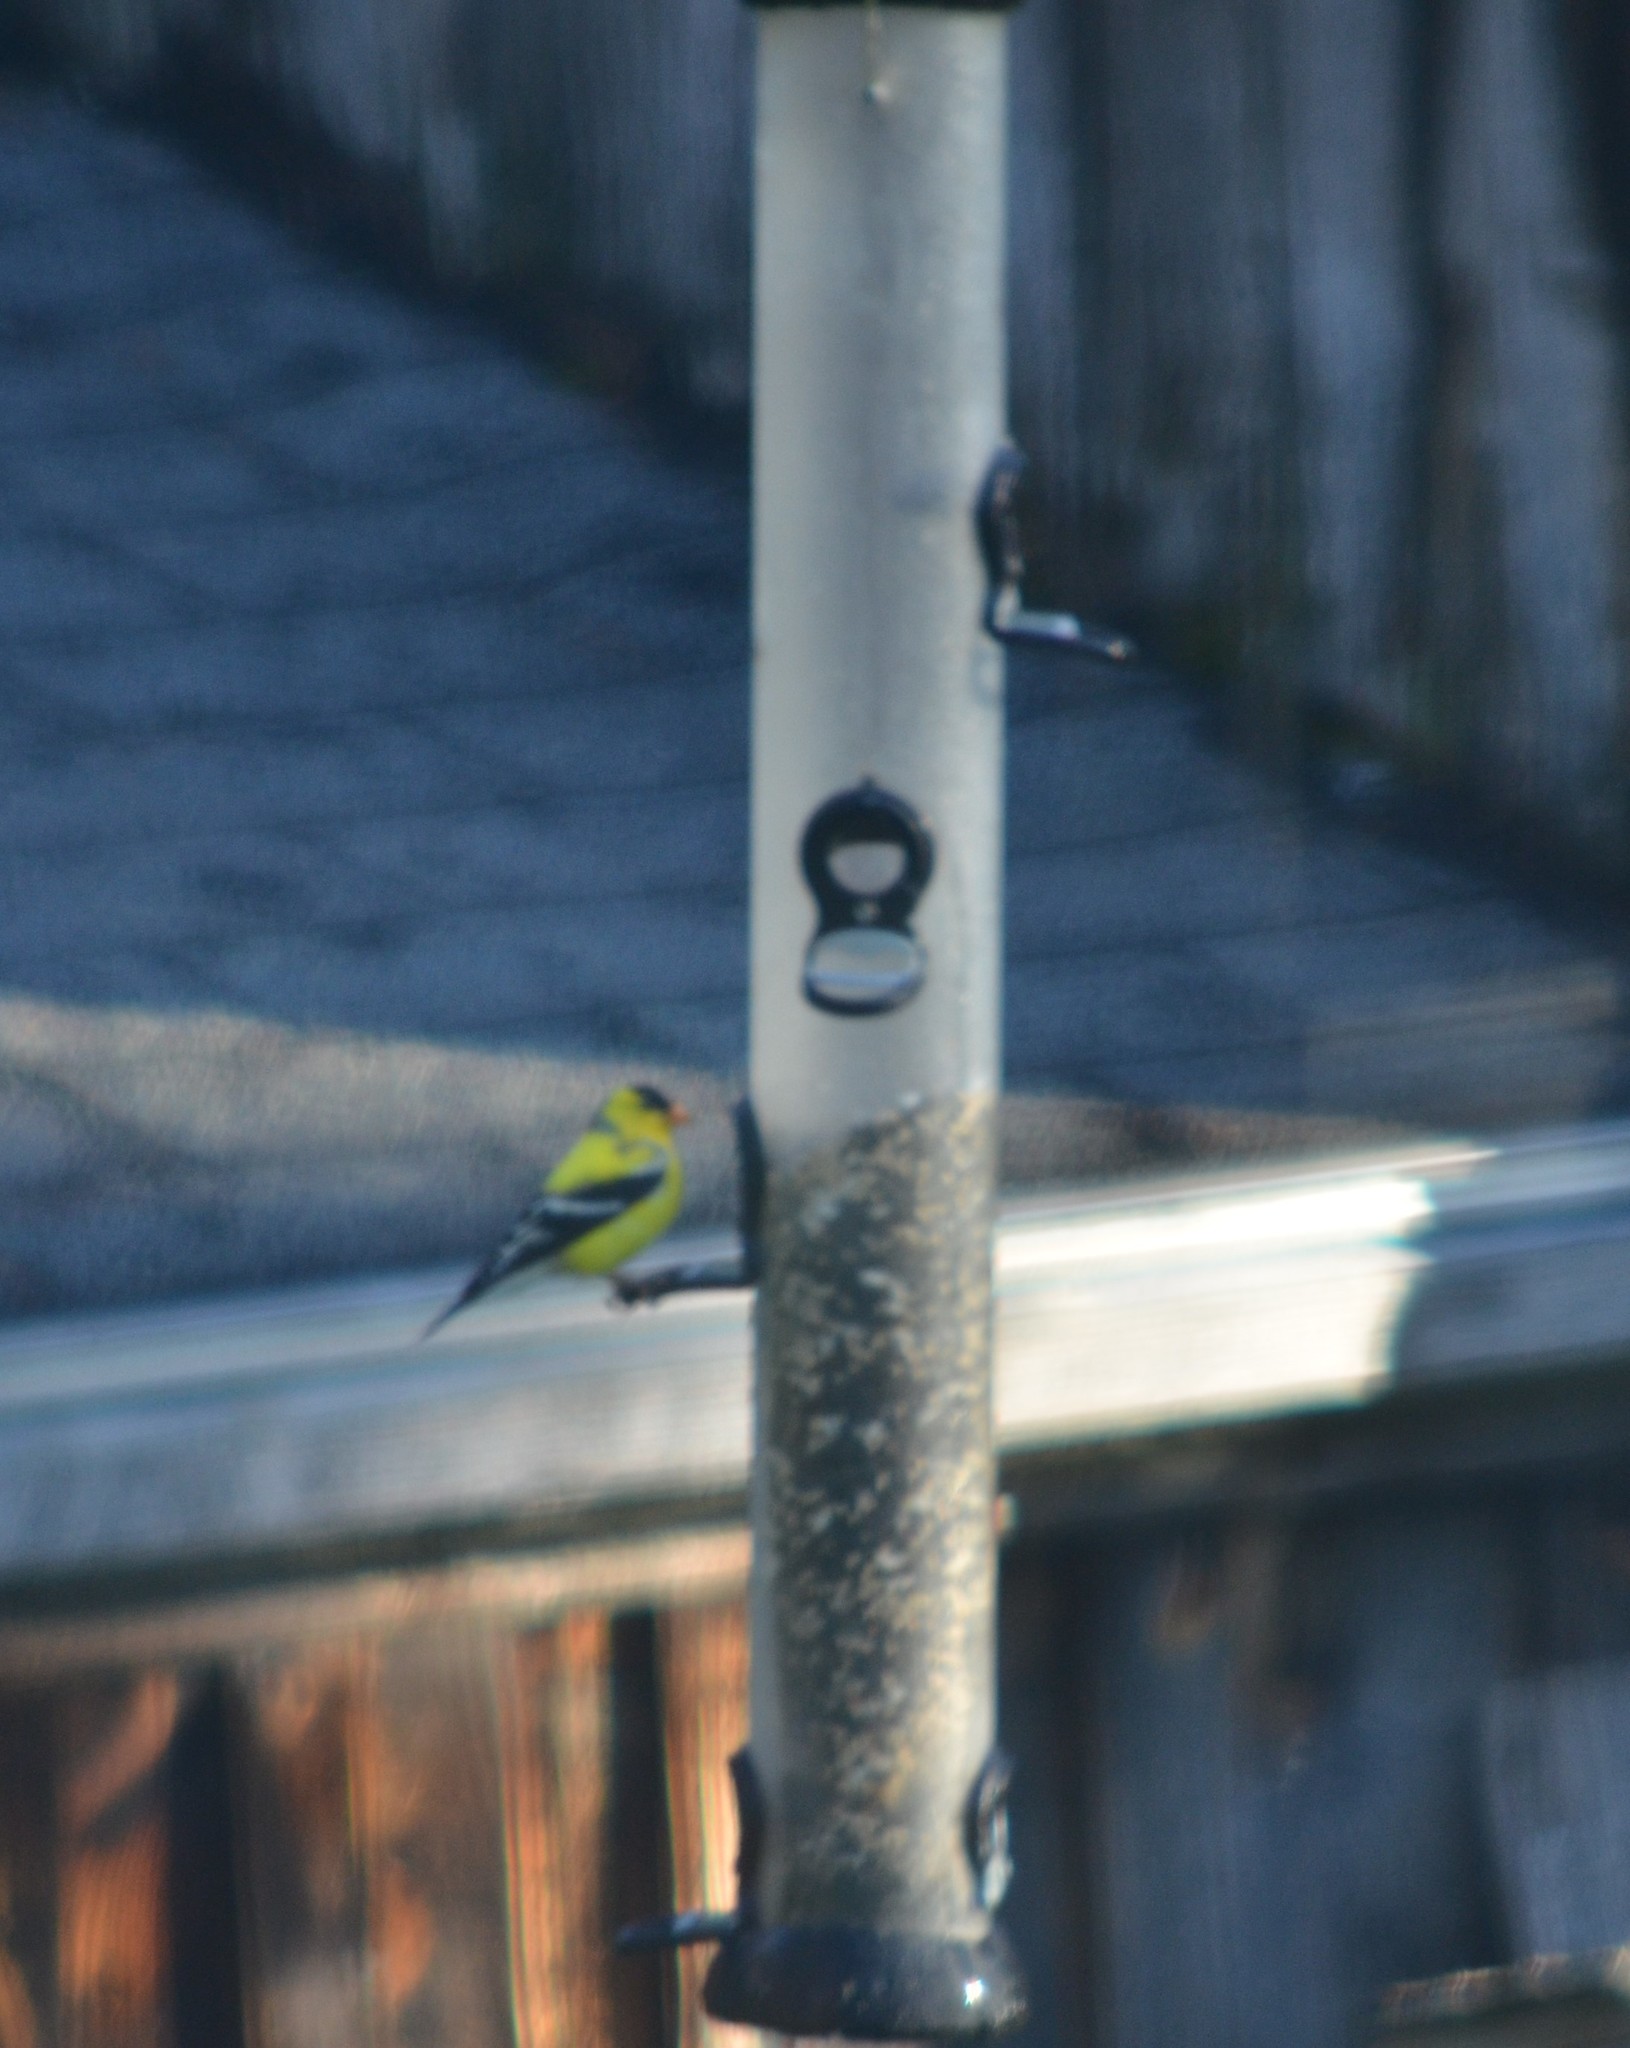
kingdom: Animalia
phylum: Chordata
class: Aves
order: Passeriformes
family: Fringillidae
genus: Spinus
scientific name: Spinus tristis
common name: American goldfinch
